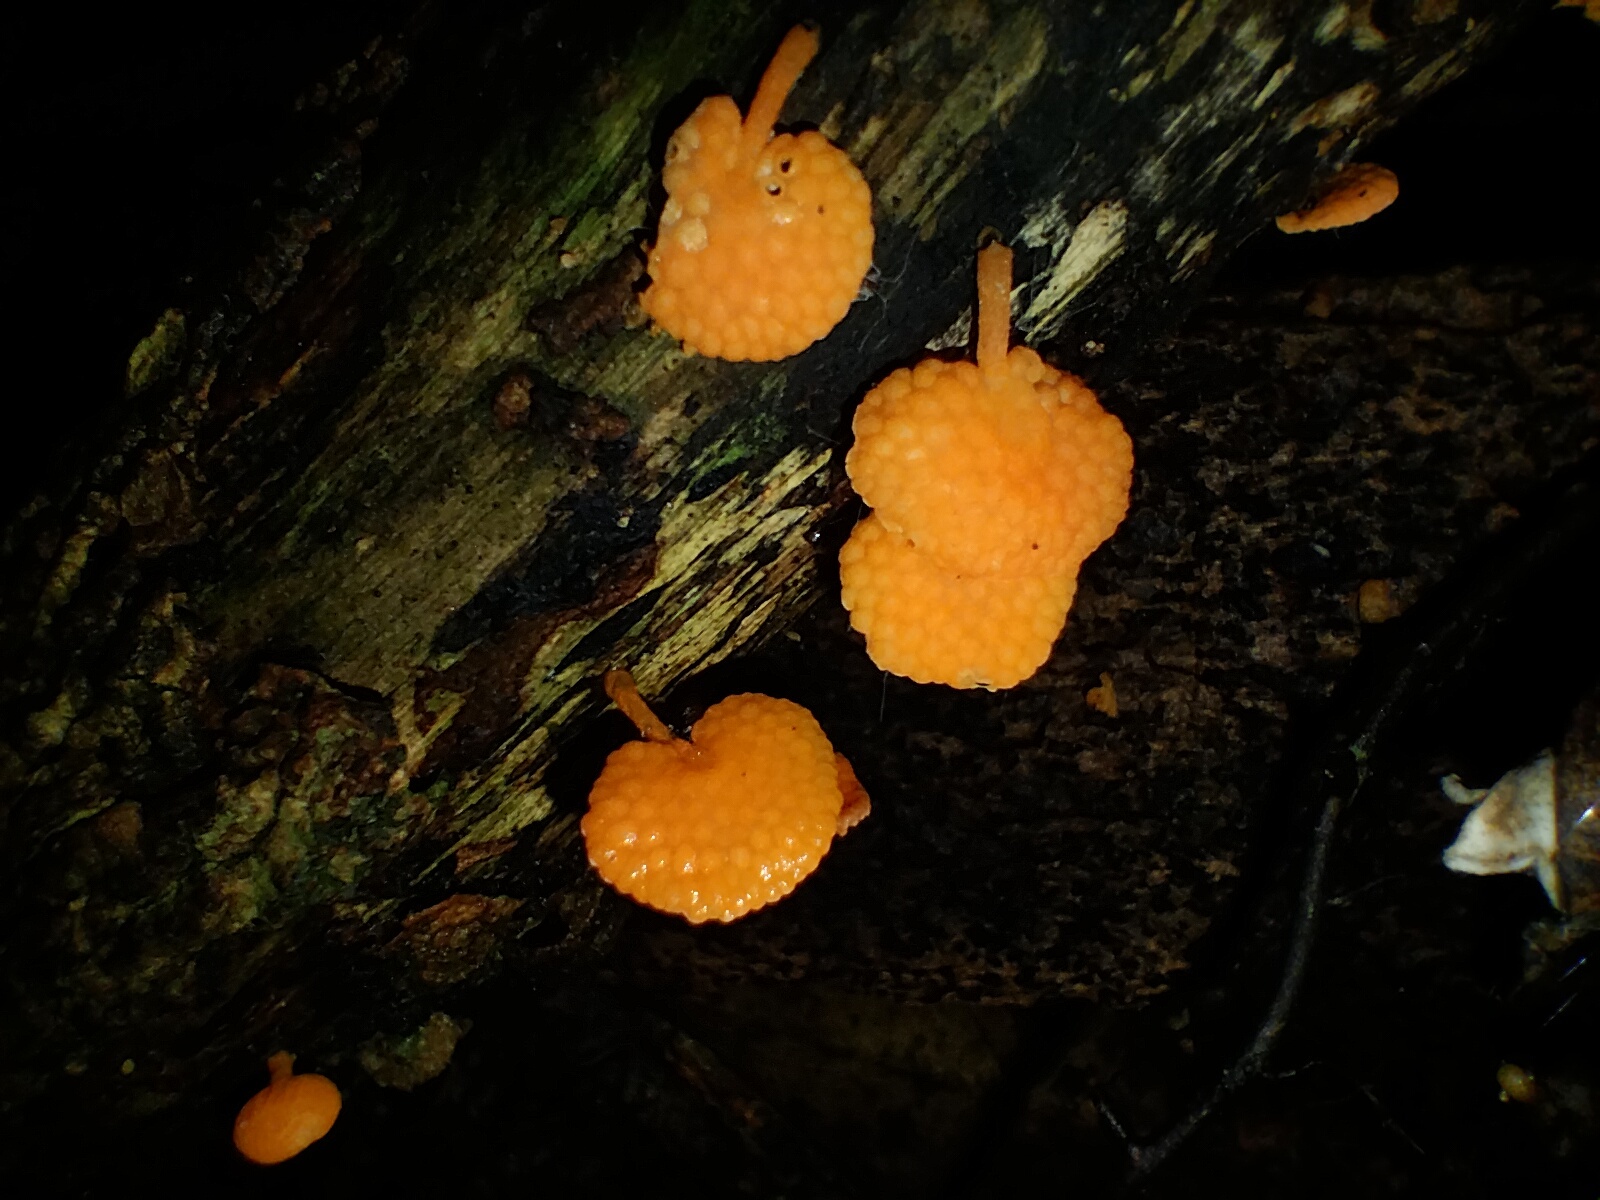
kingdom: Fungi
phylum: Basidiomycota
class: Agaricomycetes
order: Agaricales
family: Mycenaceae
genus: Favolaschia
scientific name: Favolaschia claudopus
